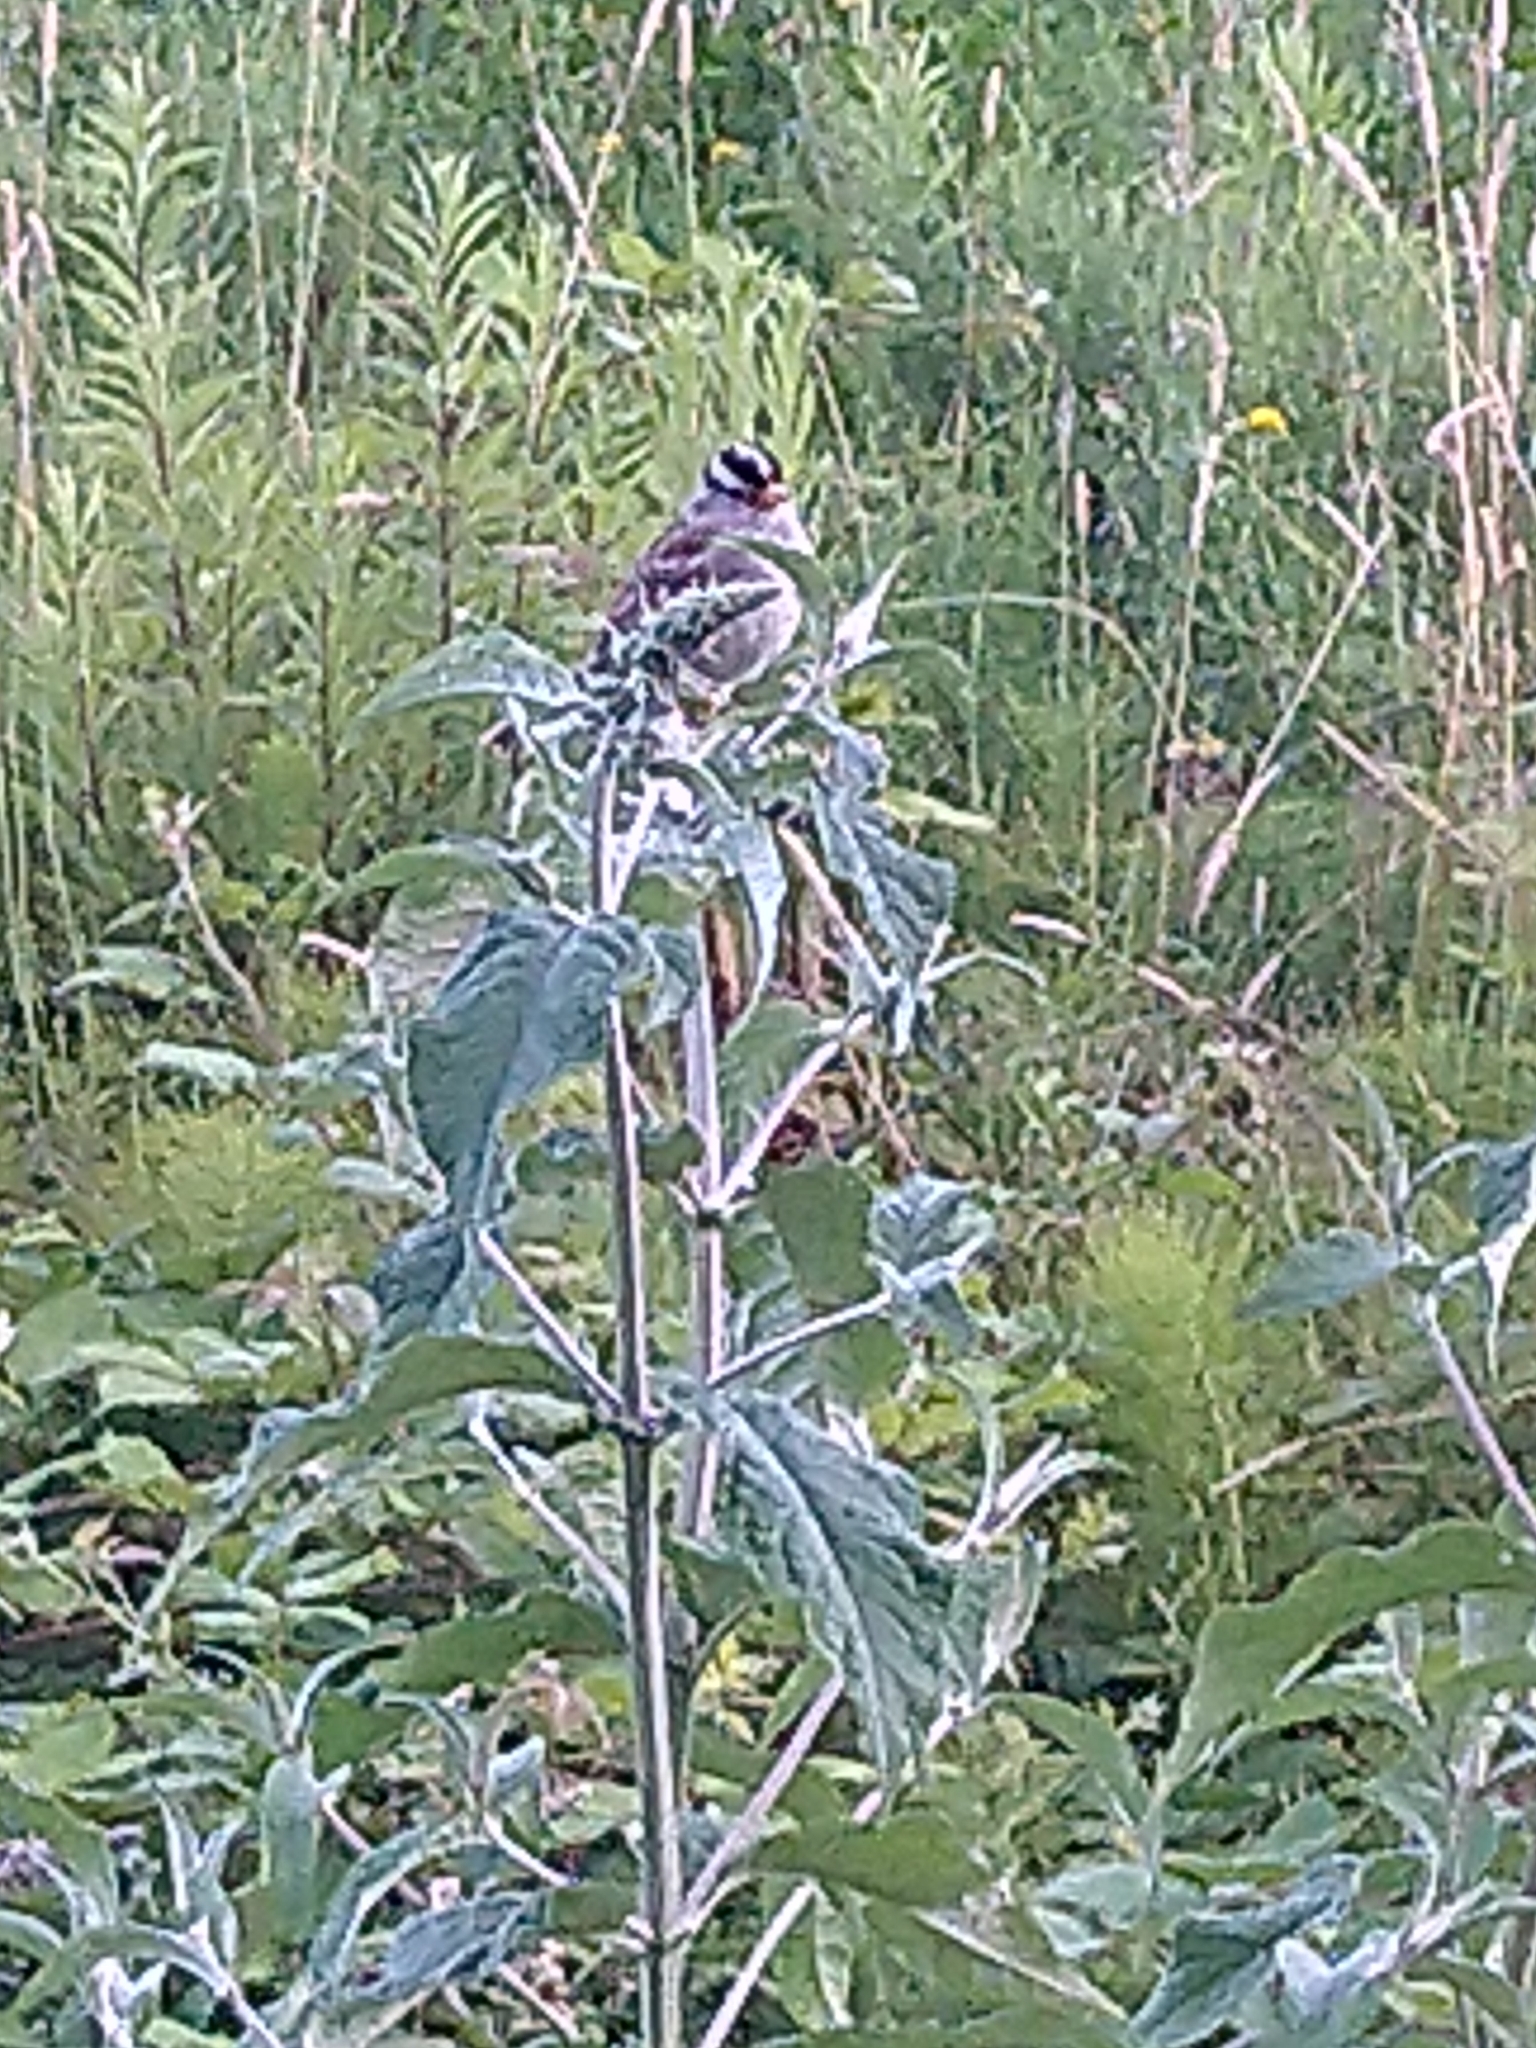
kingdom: Animalia
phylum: Chordata
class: Aves
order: Passeriformes
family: Passerellidae
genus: Zonotrichia
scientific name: Zonotrichia leucophrys
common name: White-crowned sparrow
